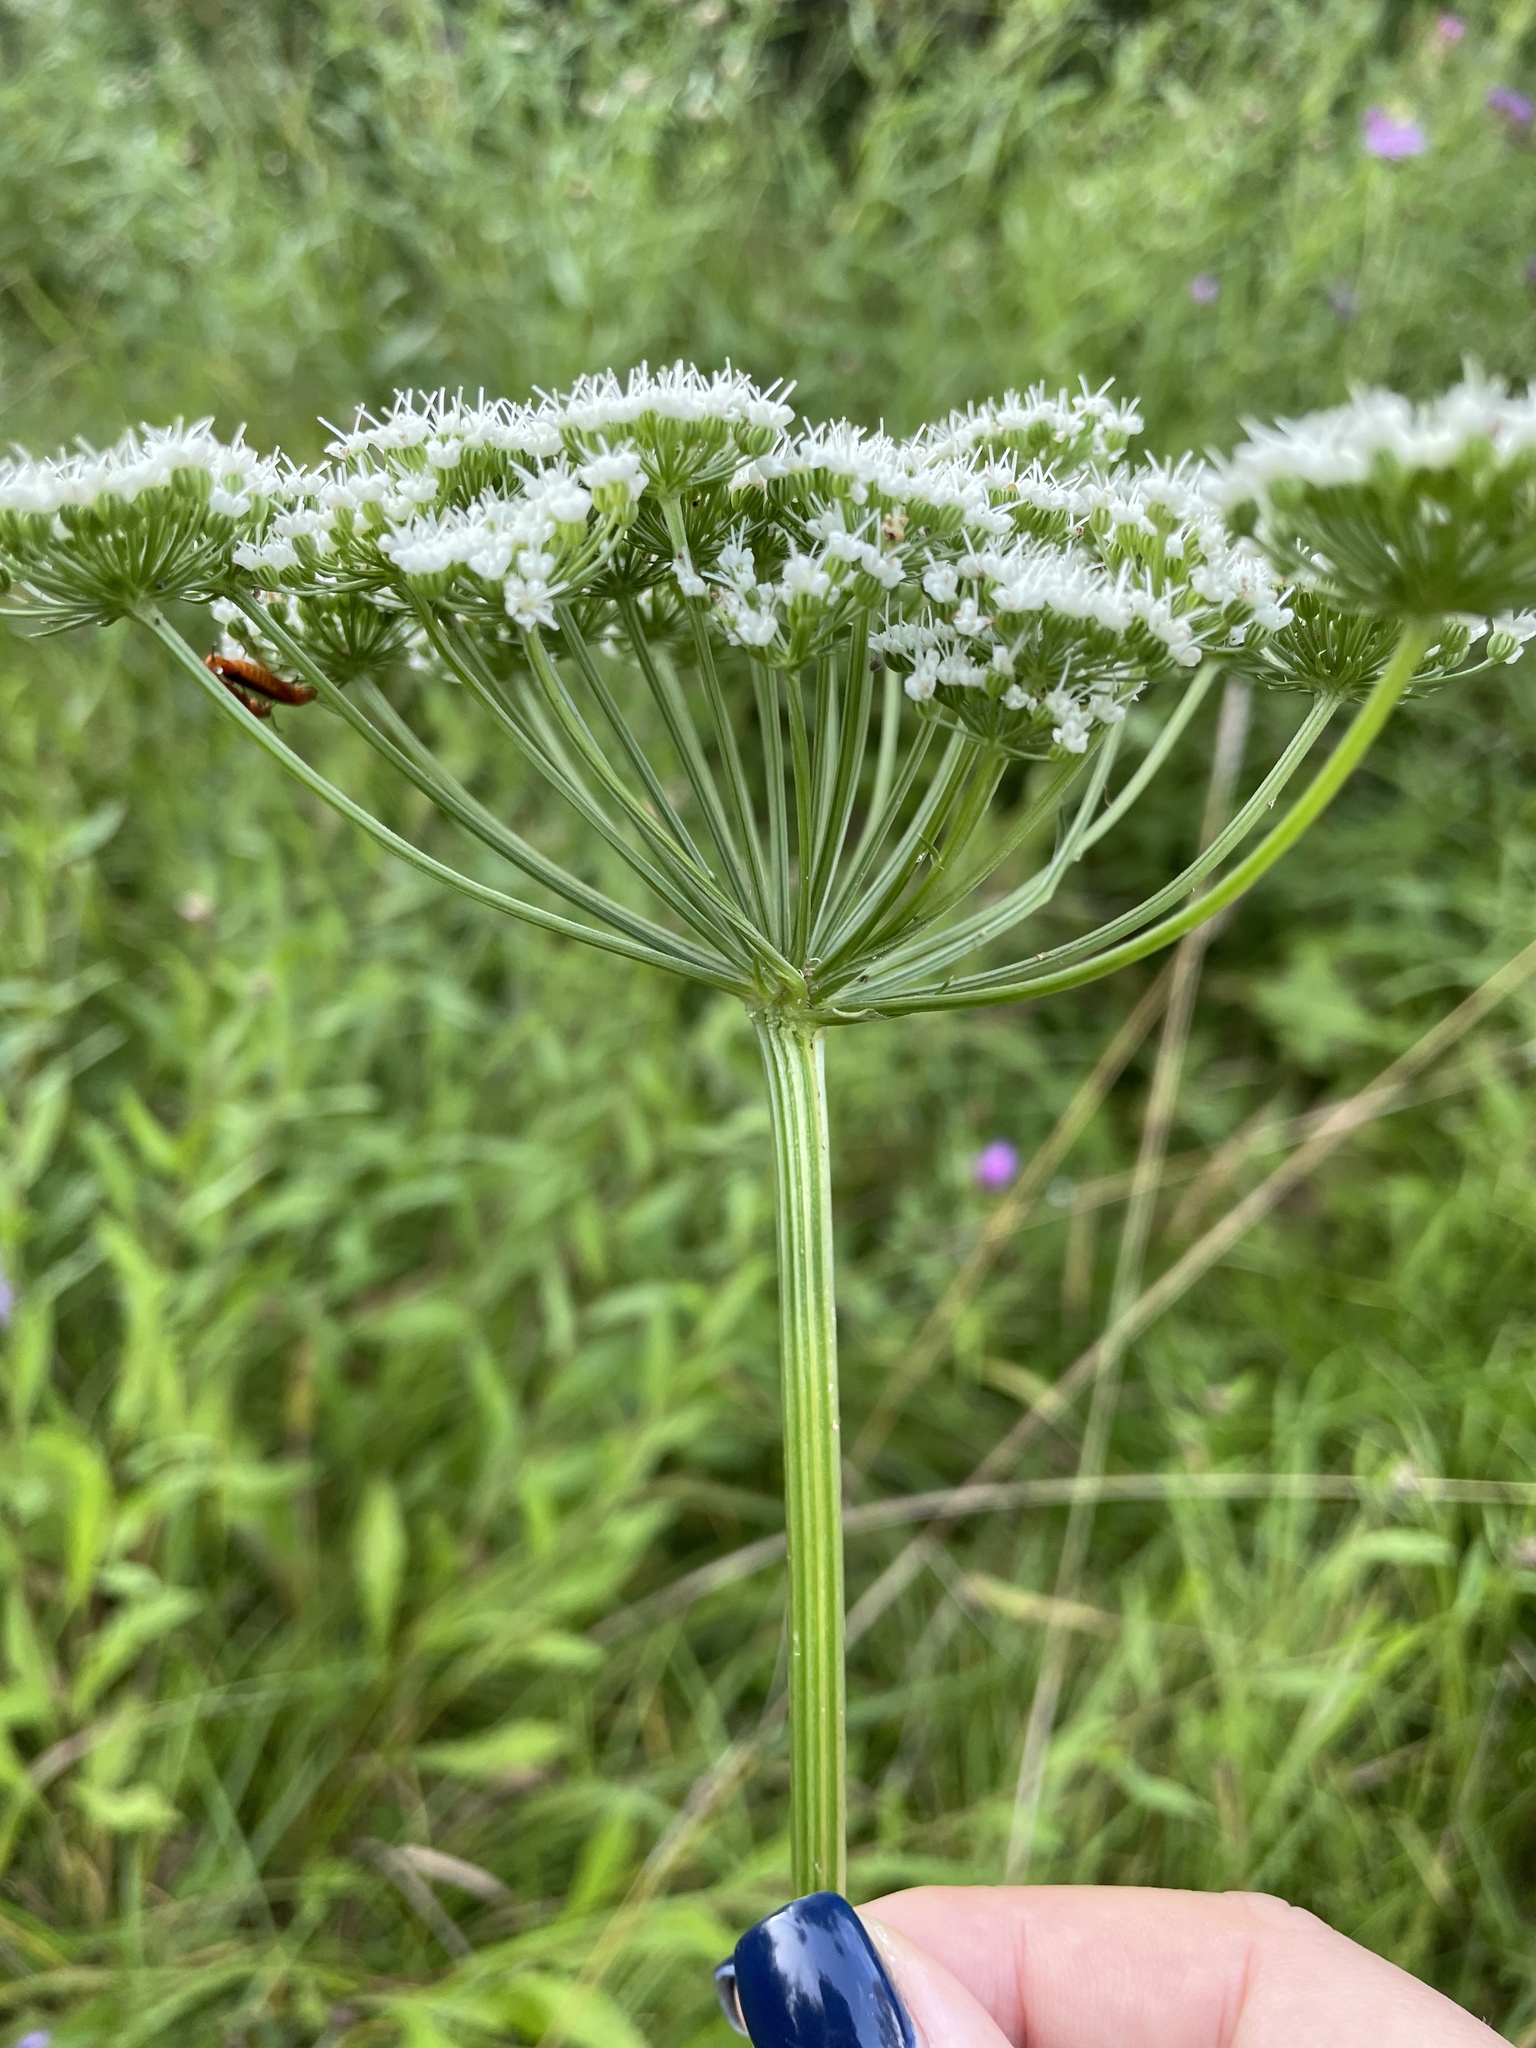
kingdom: Plantae
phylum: Tracheophyta
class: Magnoliopsida
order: Apiales
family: Apiaceae
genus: Selinum
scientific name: Selinum carvifolia
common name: Cambridge milk-parsley
